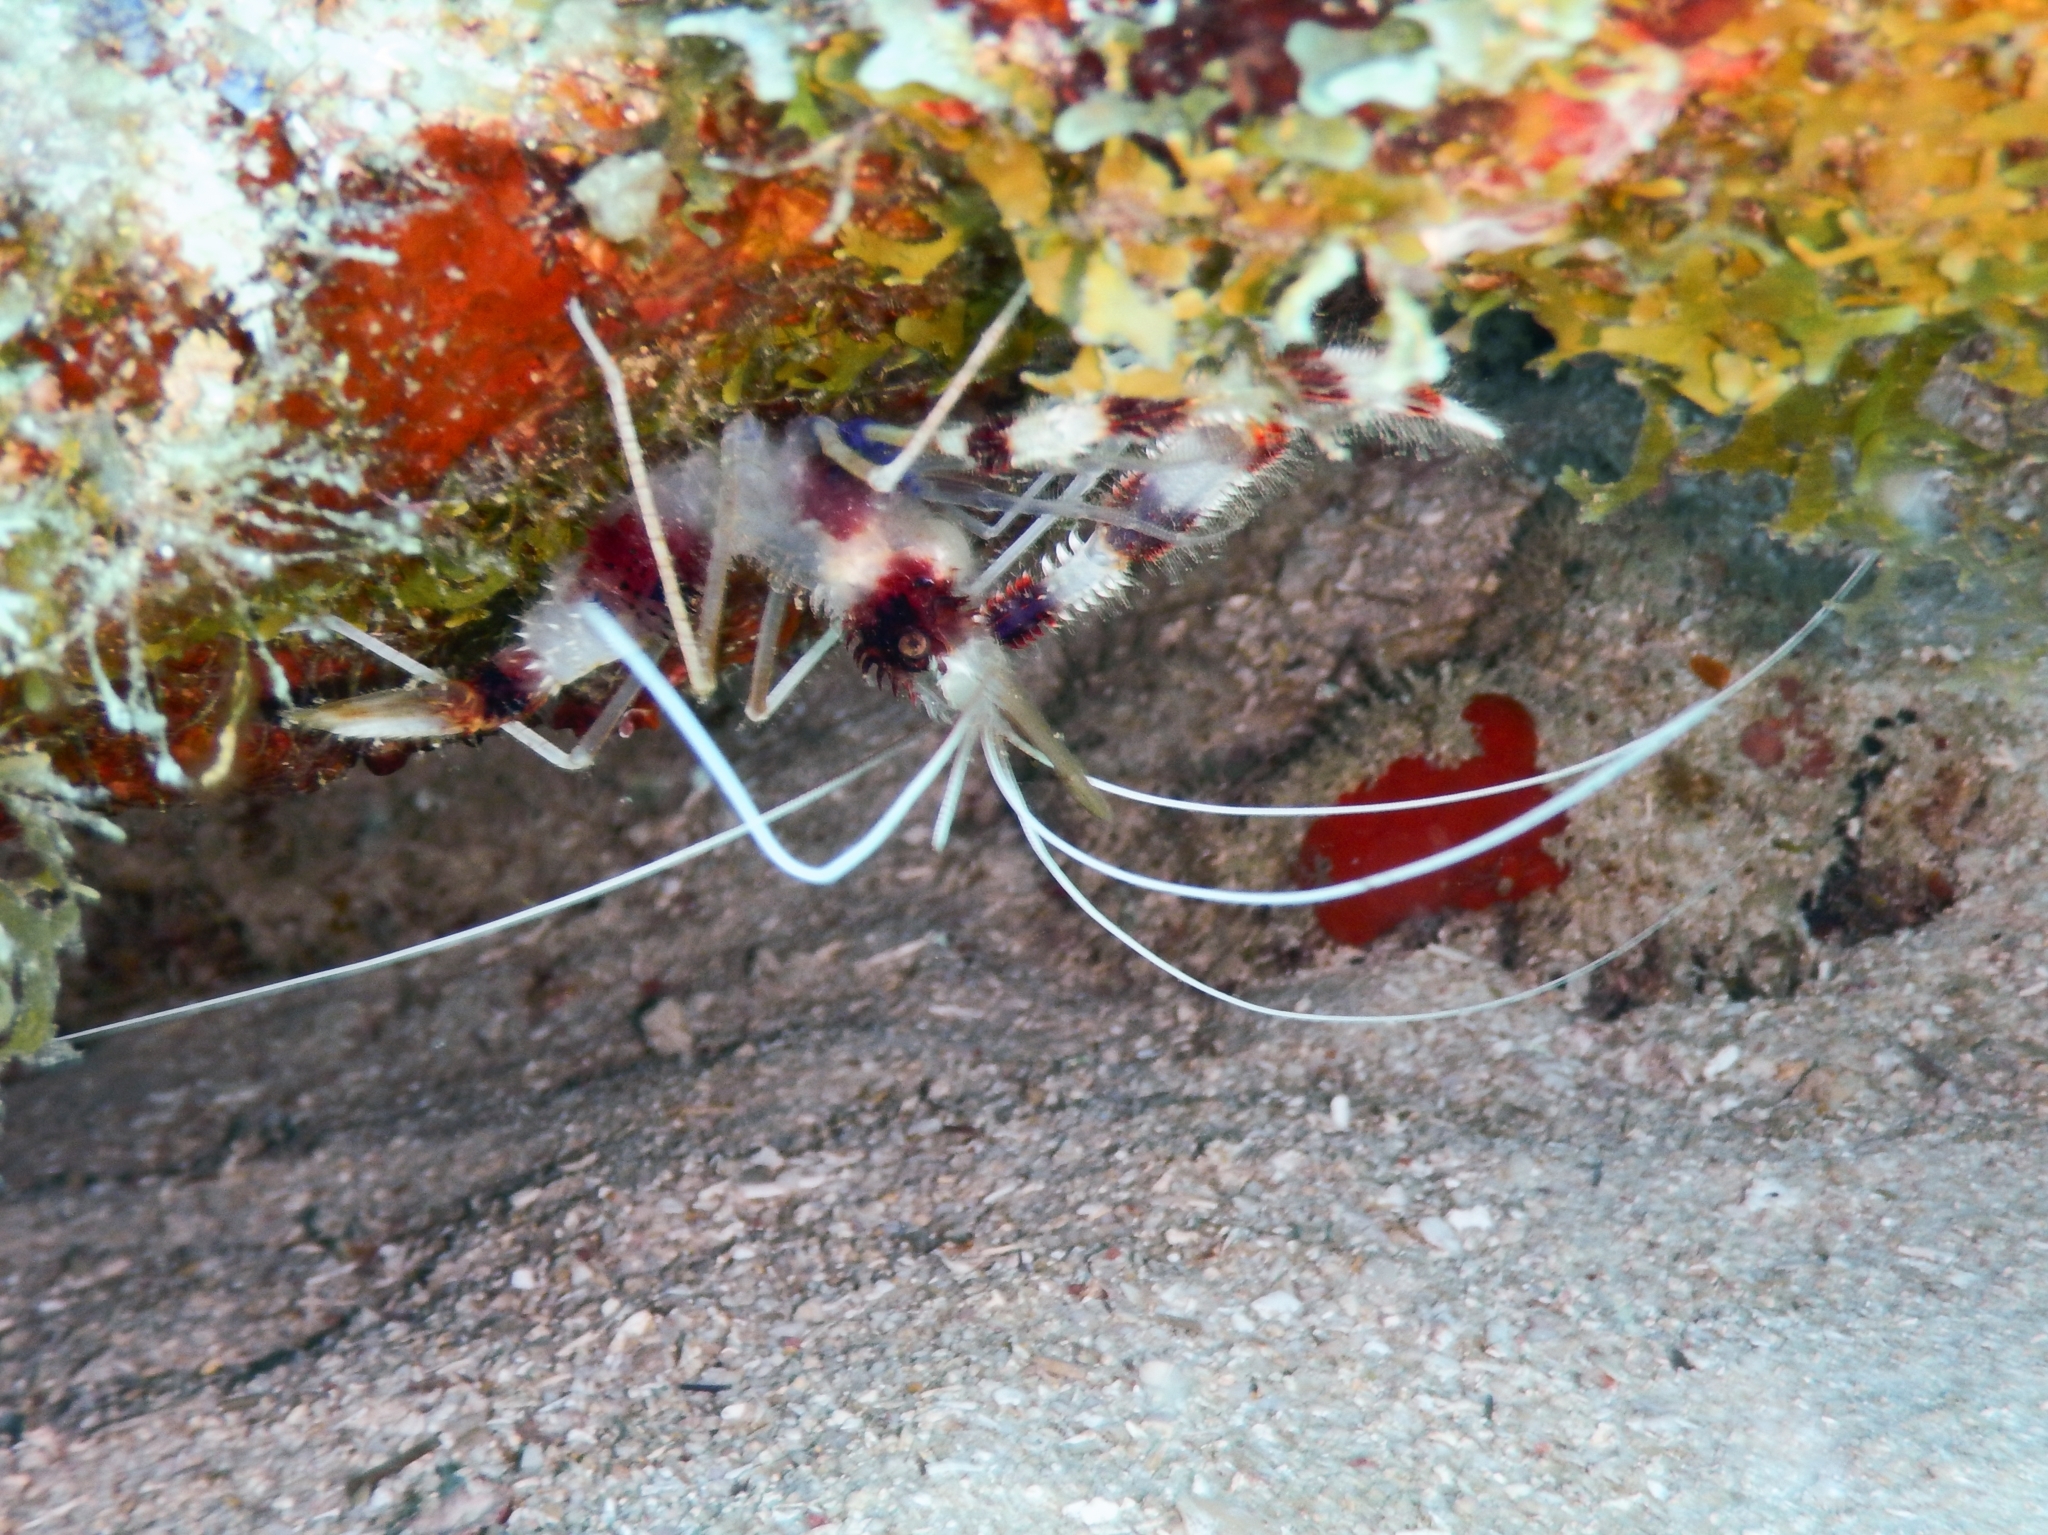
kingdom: Animalia
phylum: Arthropoda
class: Malacostraca
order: Decapoda
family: Stenopodidae
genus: Stenopus
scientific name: Stenopus hispidus
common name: Banded coral shrimp
